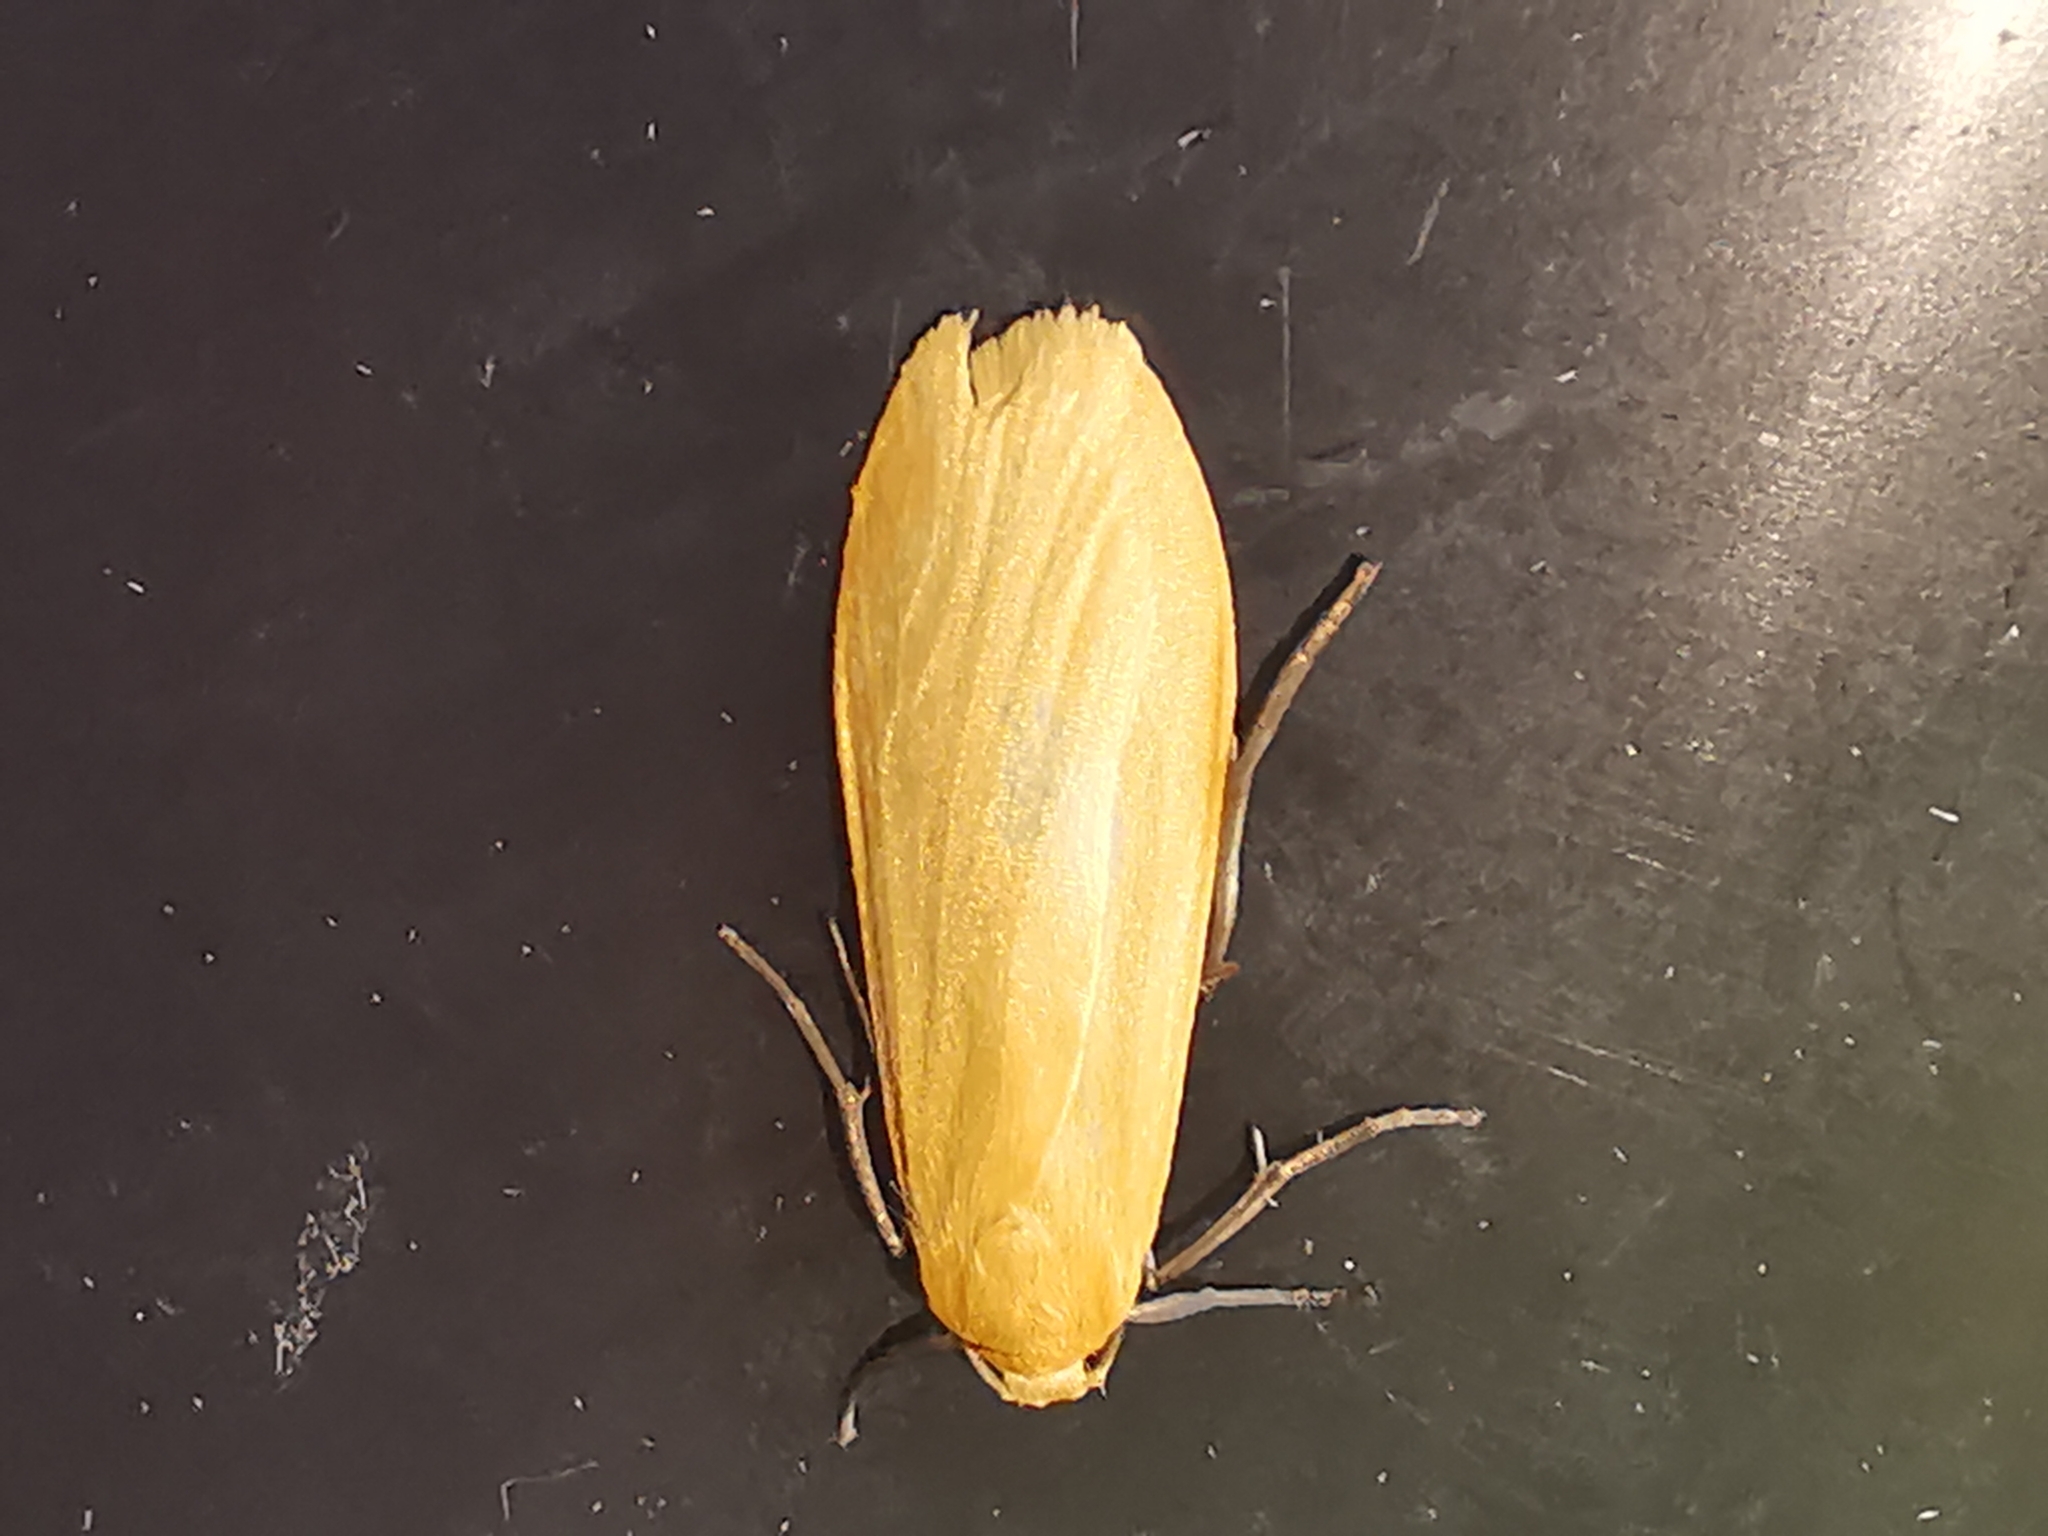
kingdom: Animalia
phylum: Arthropoda
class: Insecta
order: Lepidoptera
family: Erebidae
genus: Wittia
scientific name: Wittia sororcula
